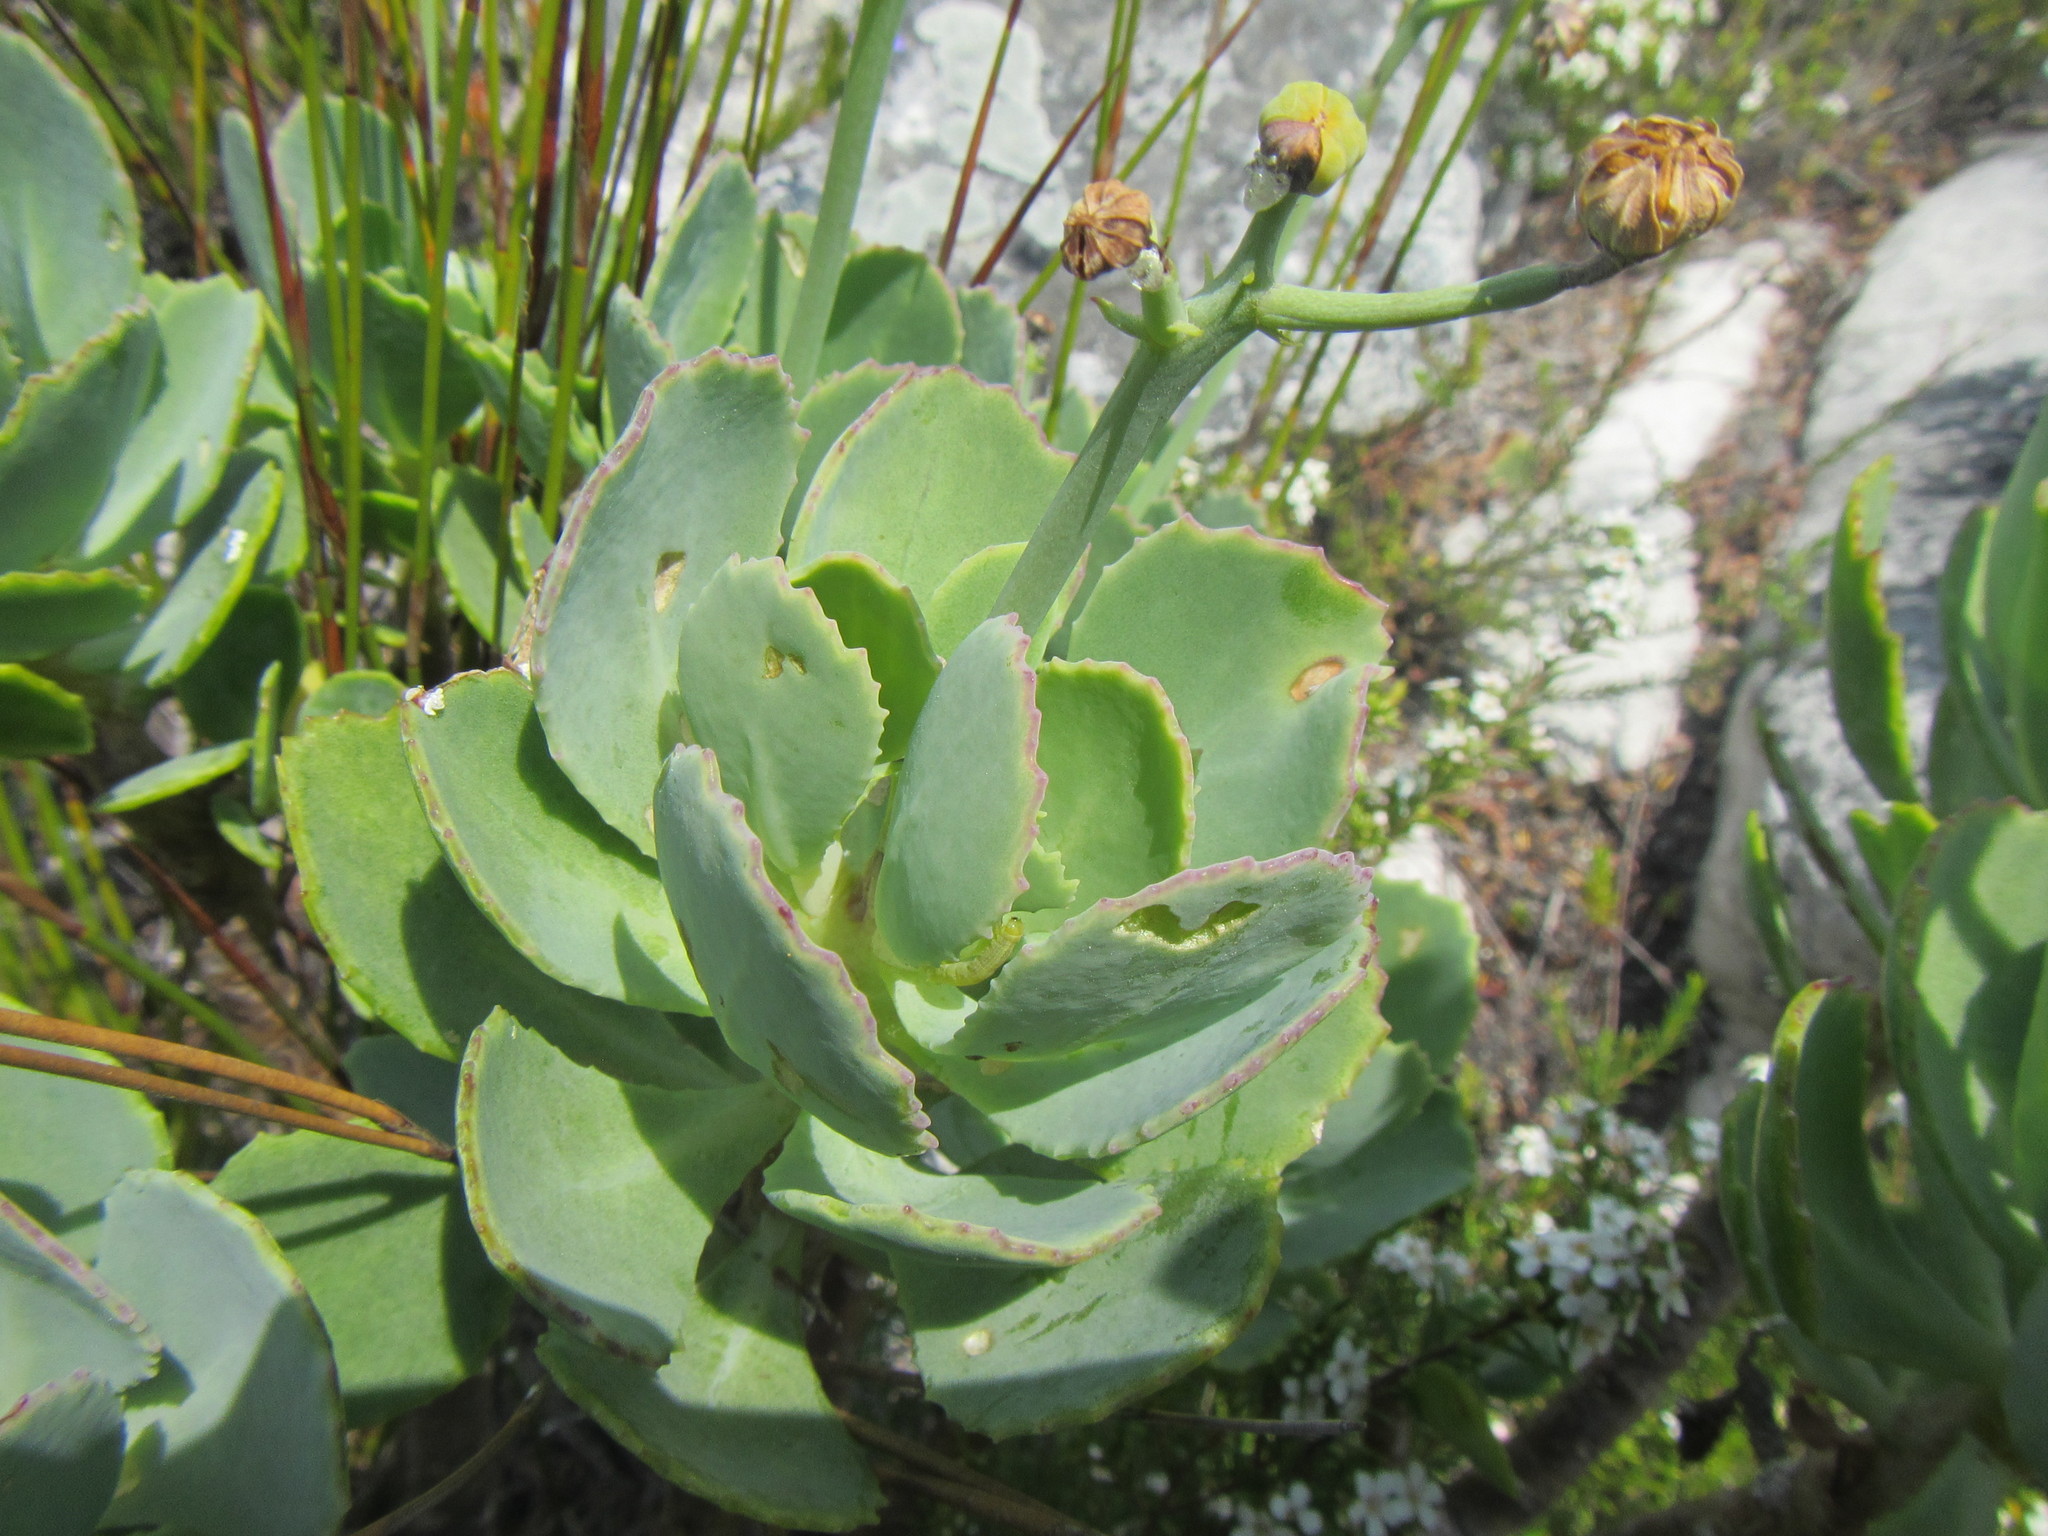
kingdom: Plantae
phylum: Tracheophyta
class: Magnoliopsida
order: Asterales
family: Asteraceae
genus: Othonna
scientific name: Othonna dentata
